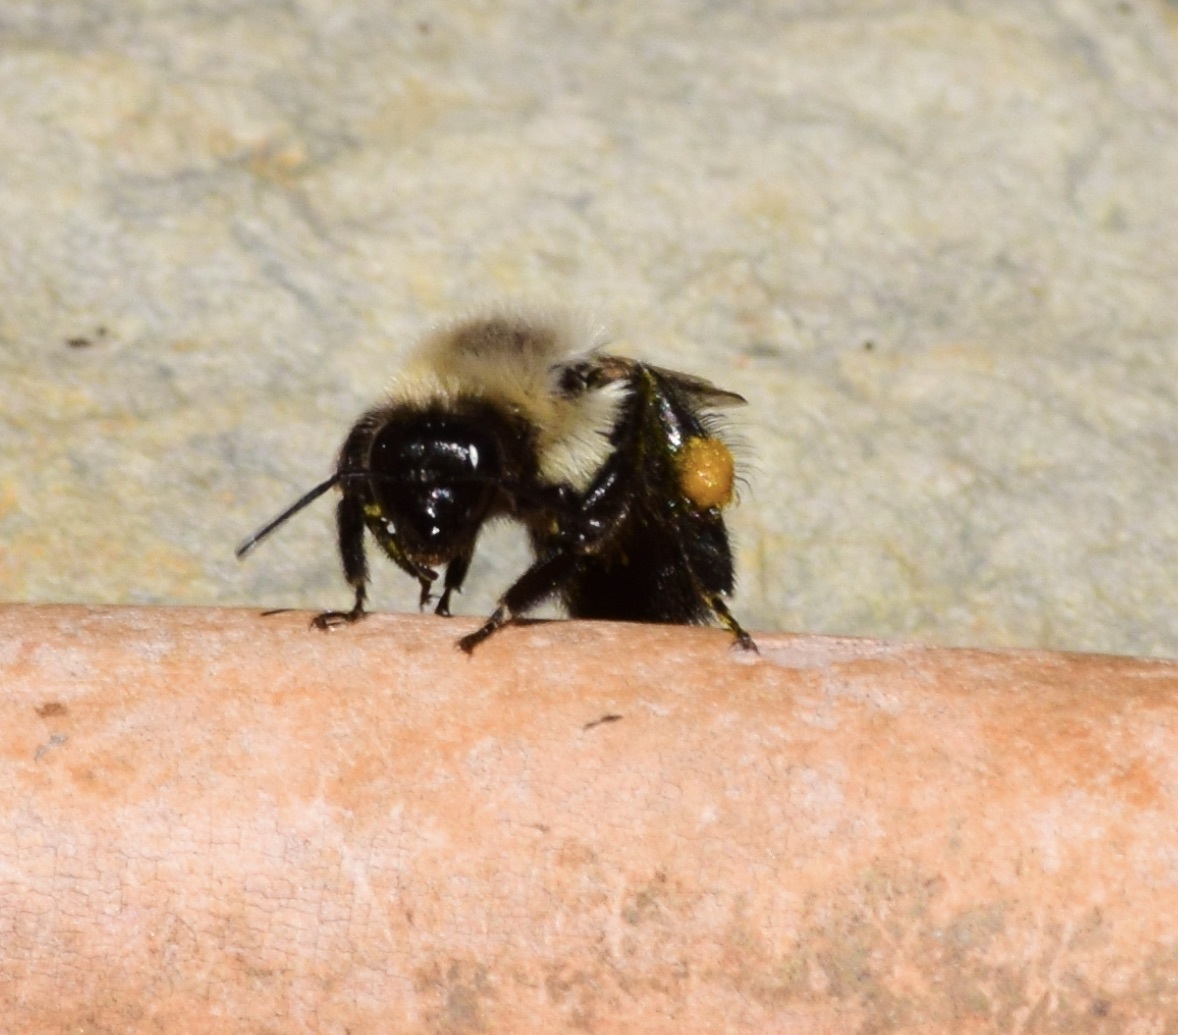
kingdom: Animalia
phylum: Arthropoda
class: Insecta
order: Hymenoptera
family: Apidae
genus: Bombus
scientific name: Bombus impatiens
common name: Common eastern bumble bee
